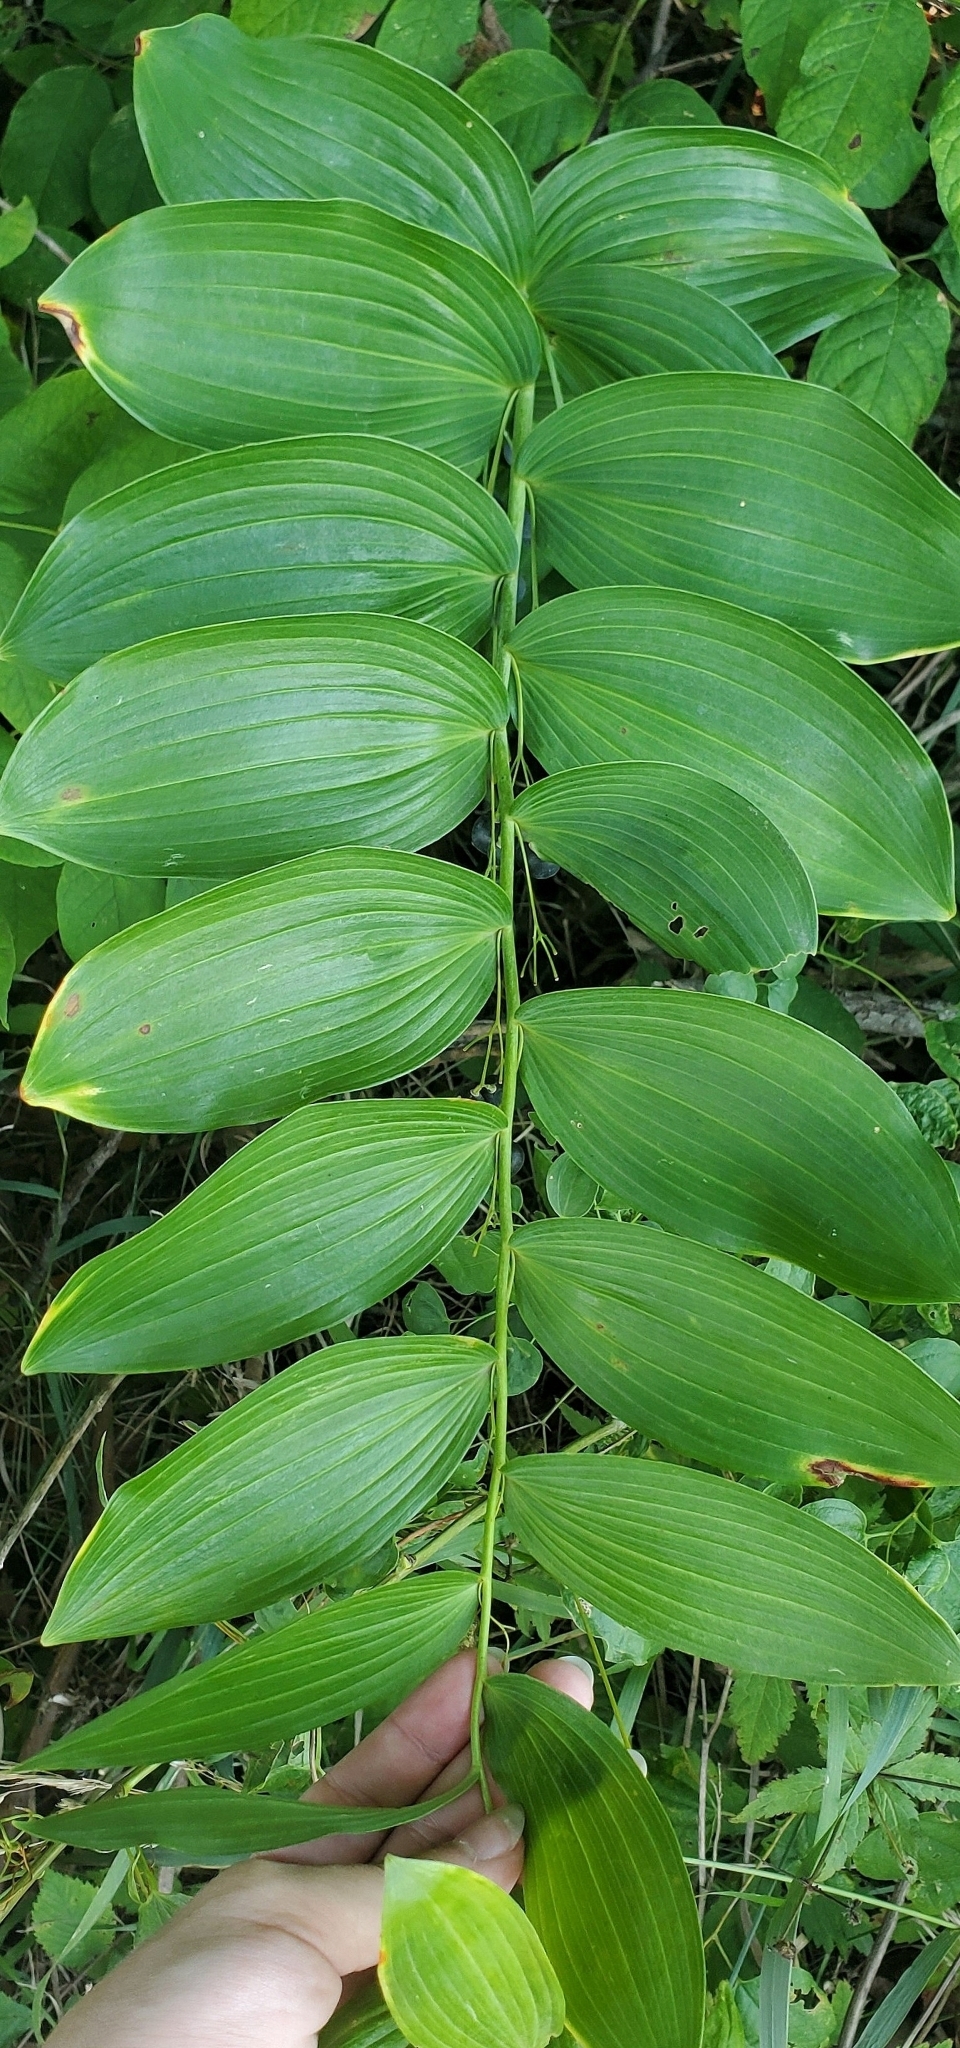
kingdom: Plantae
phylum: Tracheophyta
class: Liliopsida
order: Asparagales
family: Asparagaceae
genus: Polygonatum
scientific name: Polygonatum biflorum
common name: American solomon's-seal
